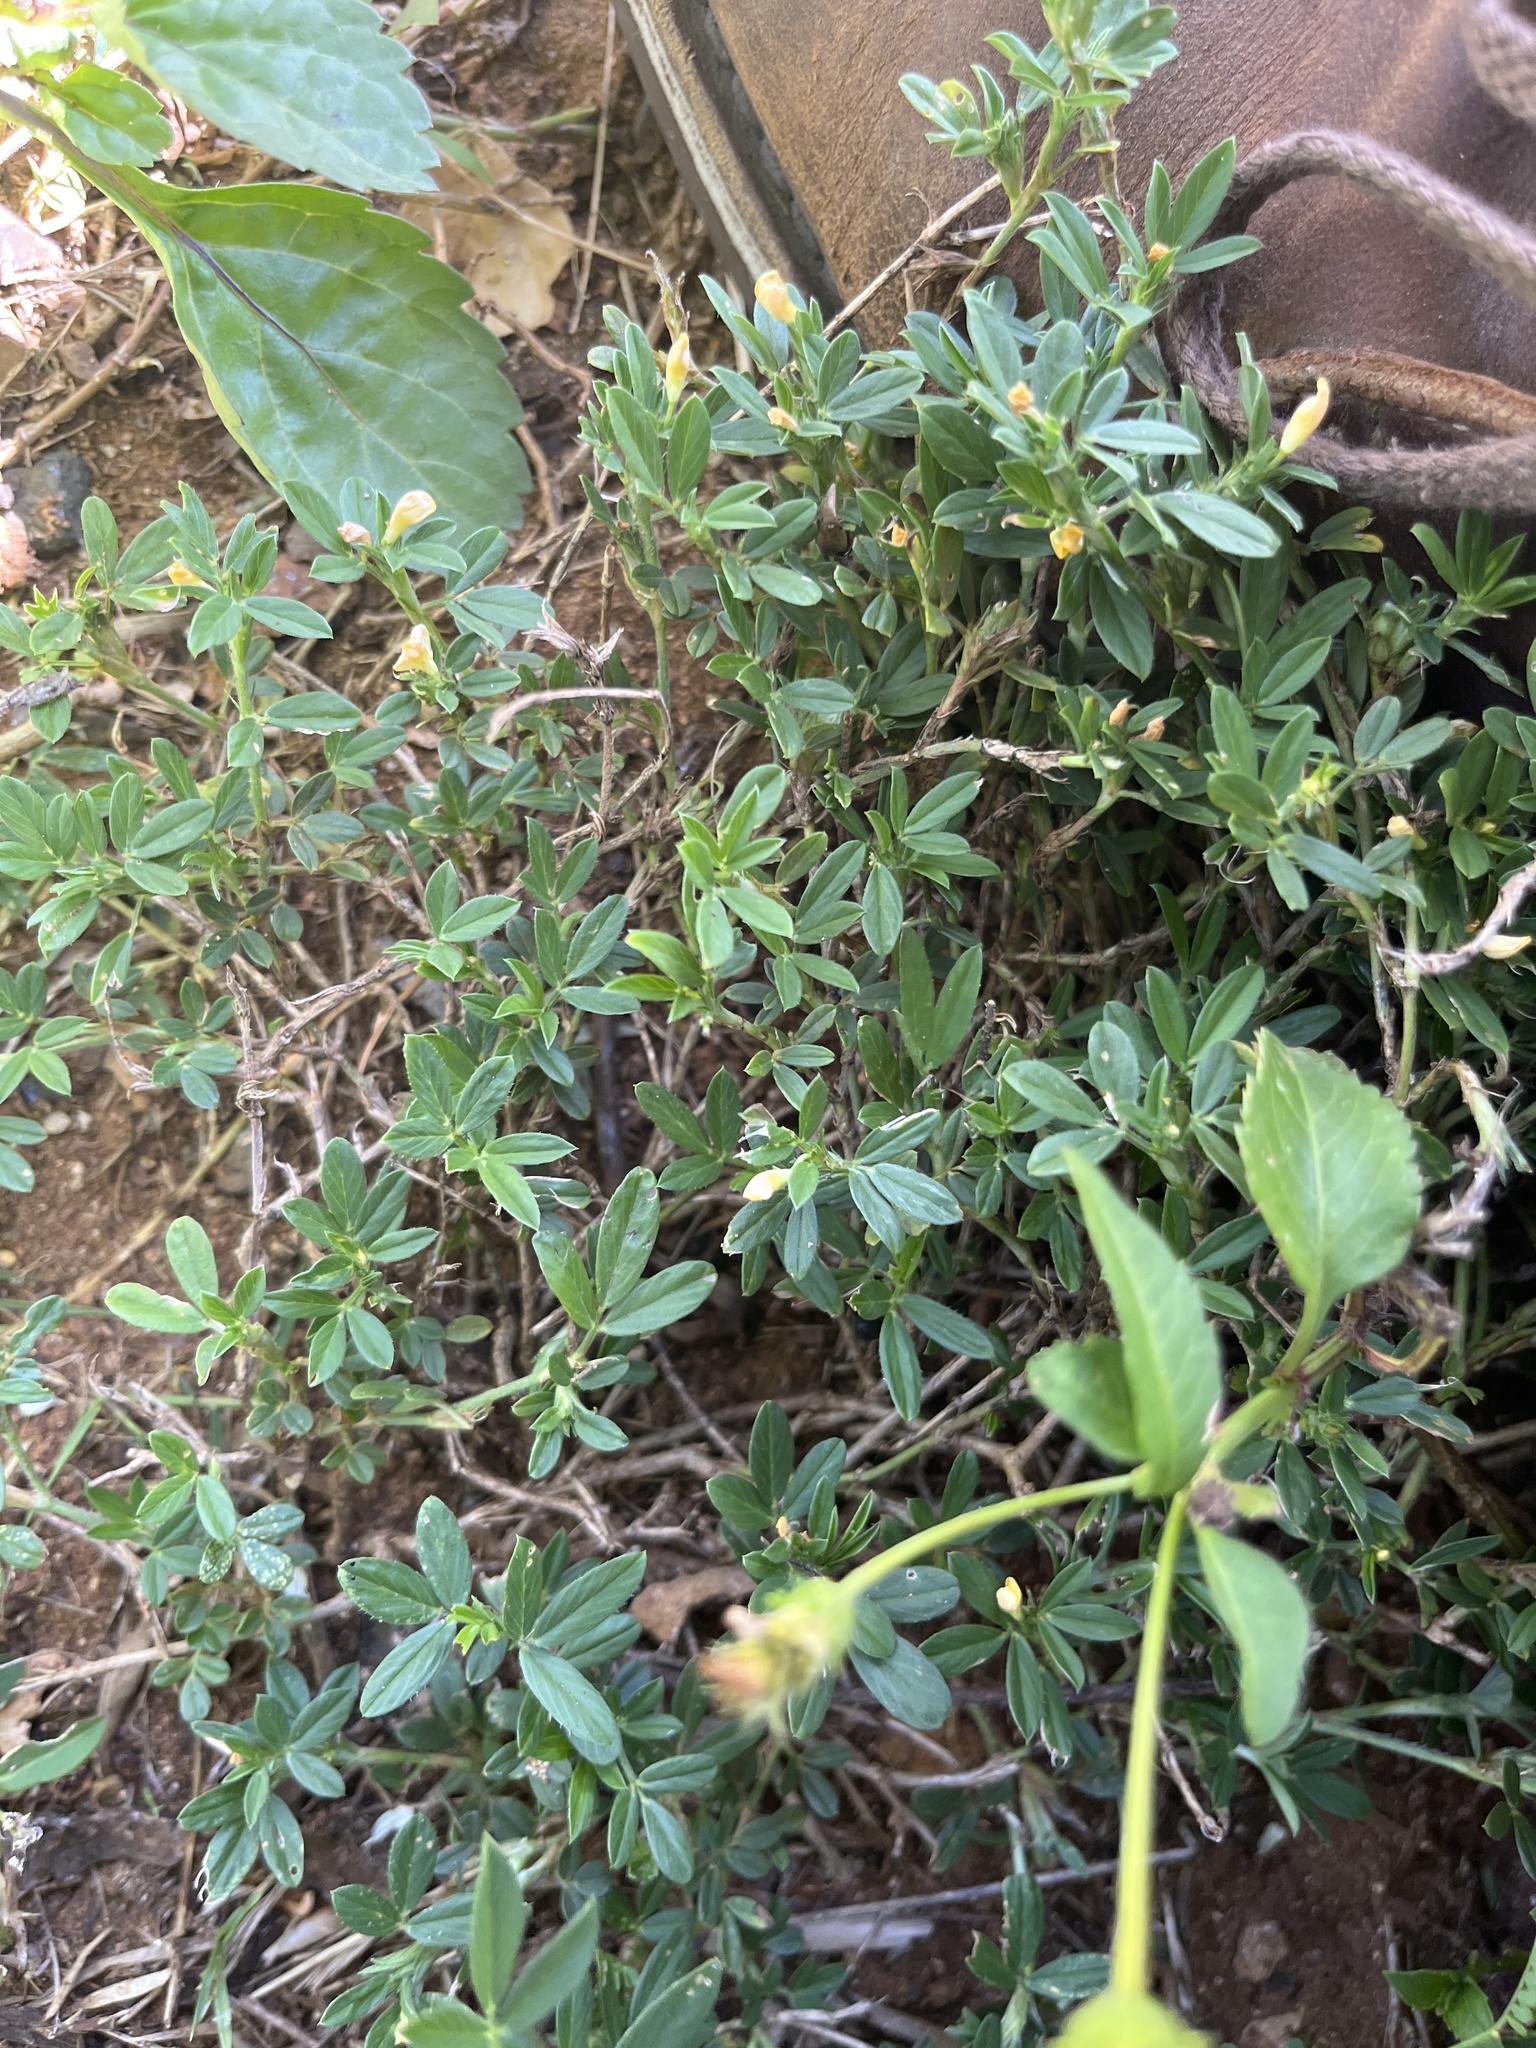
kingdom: Plantae
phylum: Tracheophyta
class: Magnoliopsida
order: Fabales
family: Fabaceae
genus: Stylosanthes
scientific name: Stylosanthes hamata
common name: Cheesytoes
